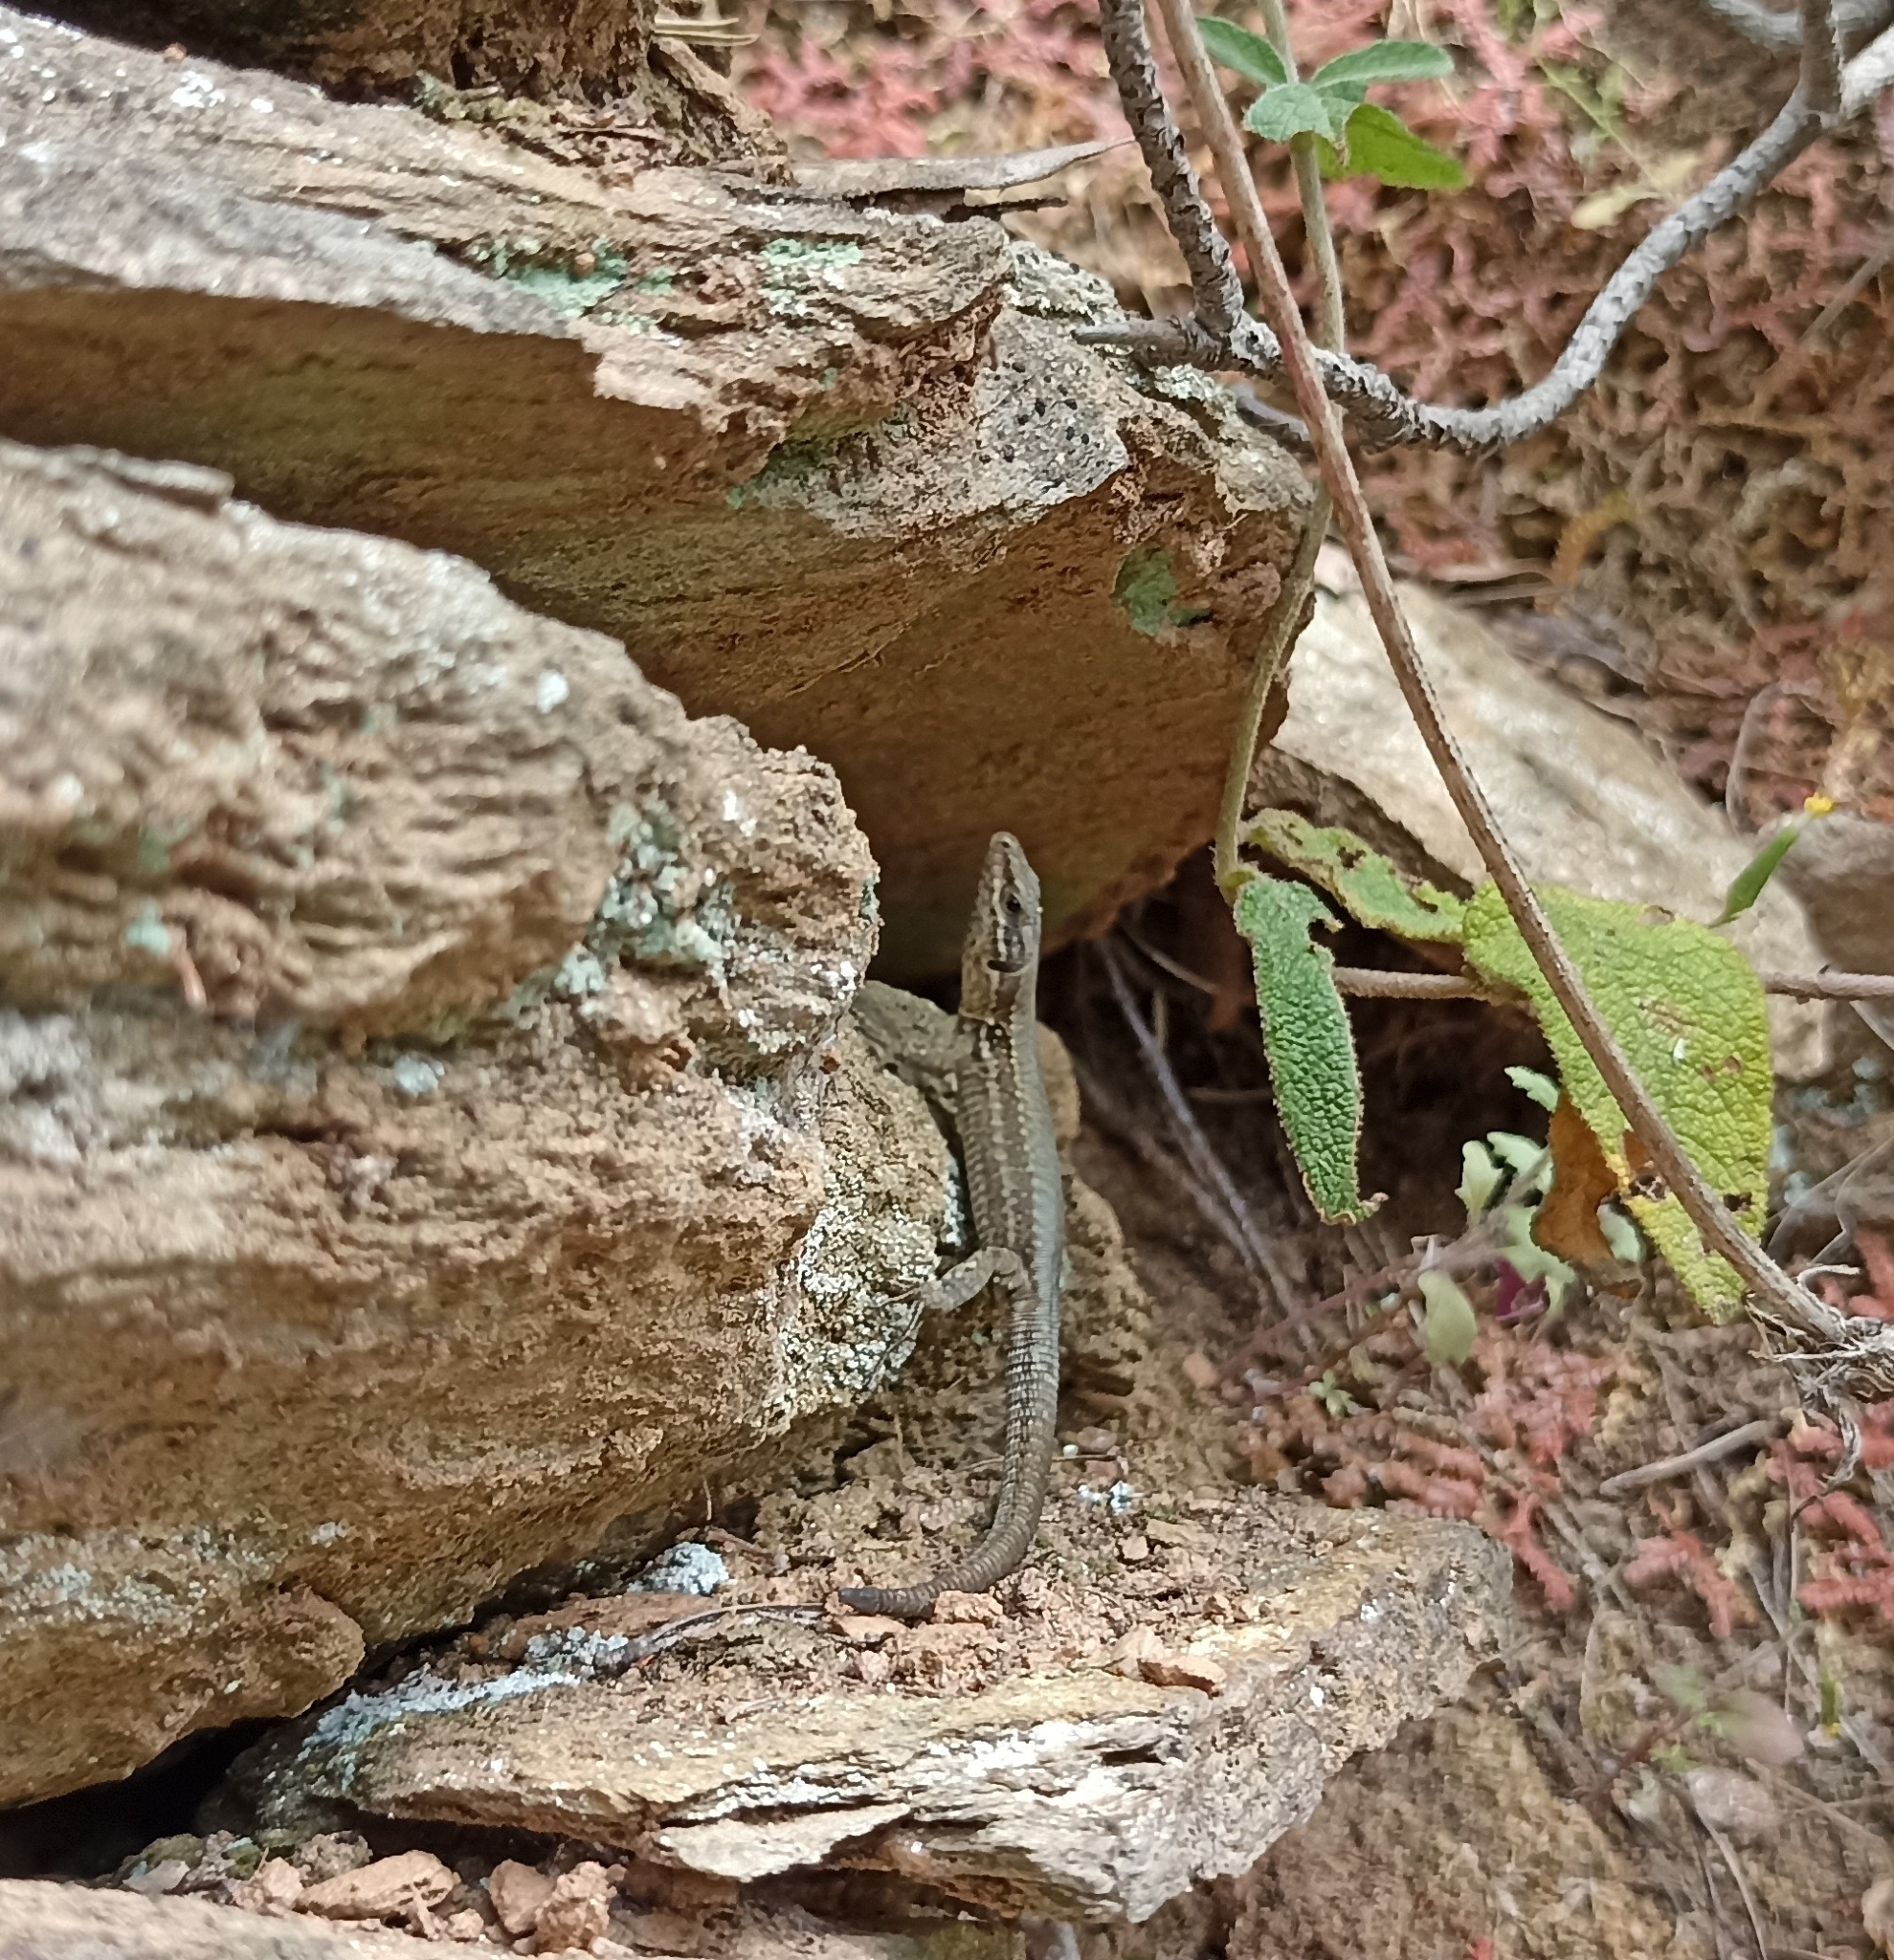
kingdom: Animalia
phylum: Chordata
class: Squamata
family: Lacertidae
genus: Podarcis
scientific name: Podarcis muralis
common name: Common wall lizard
